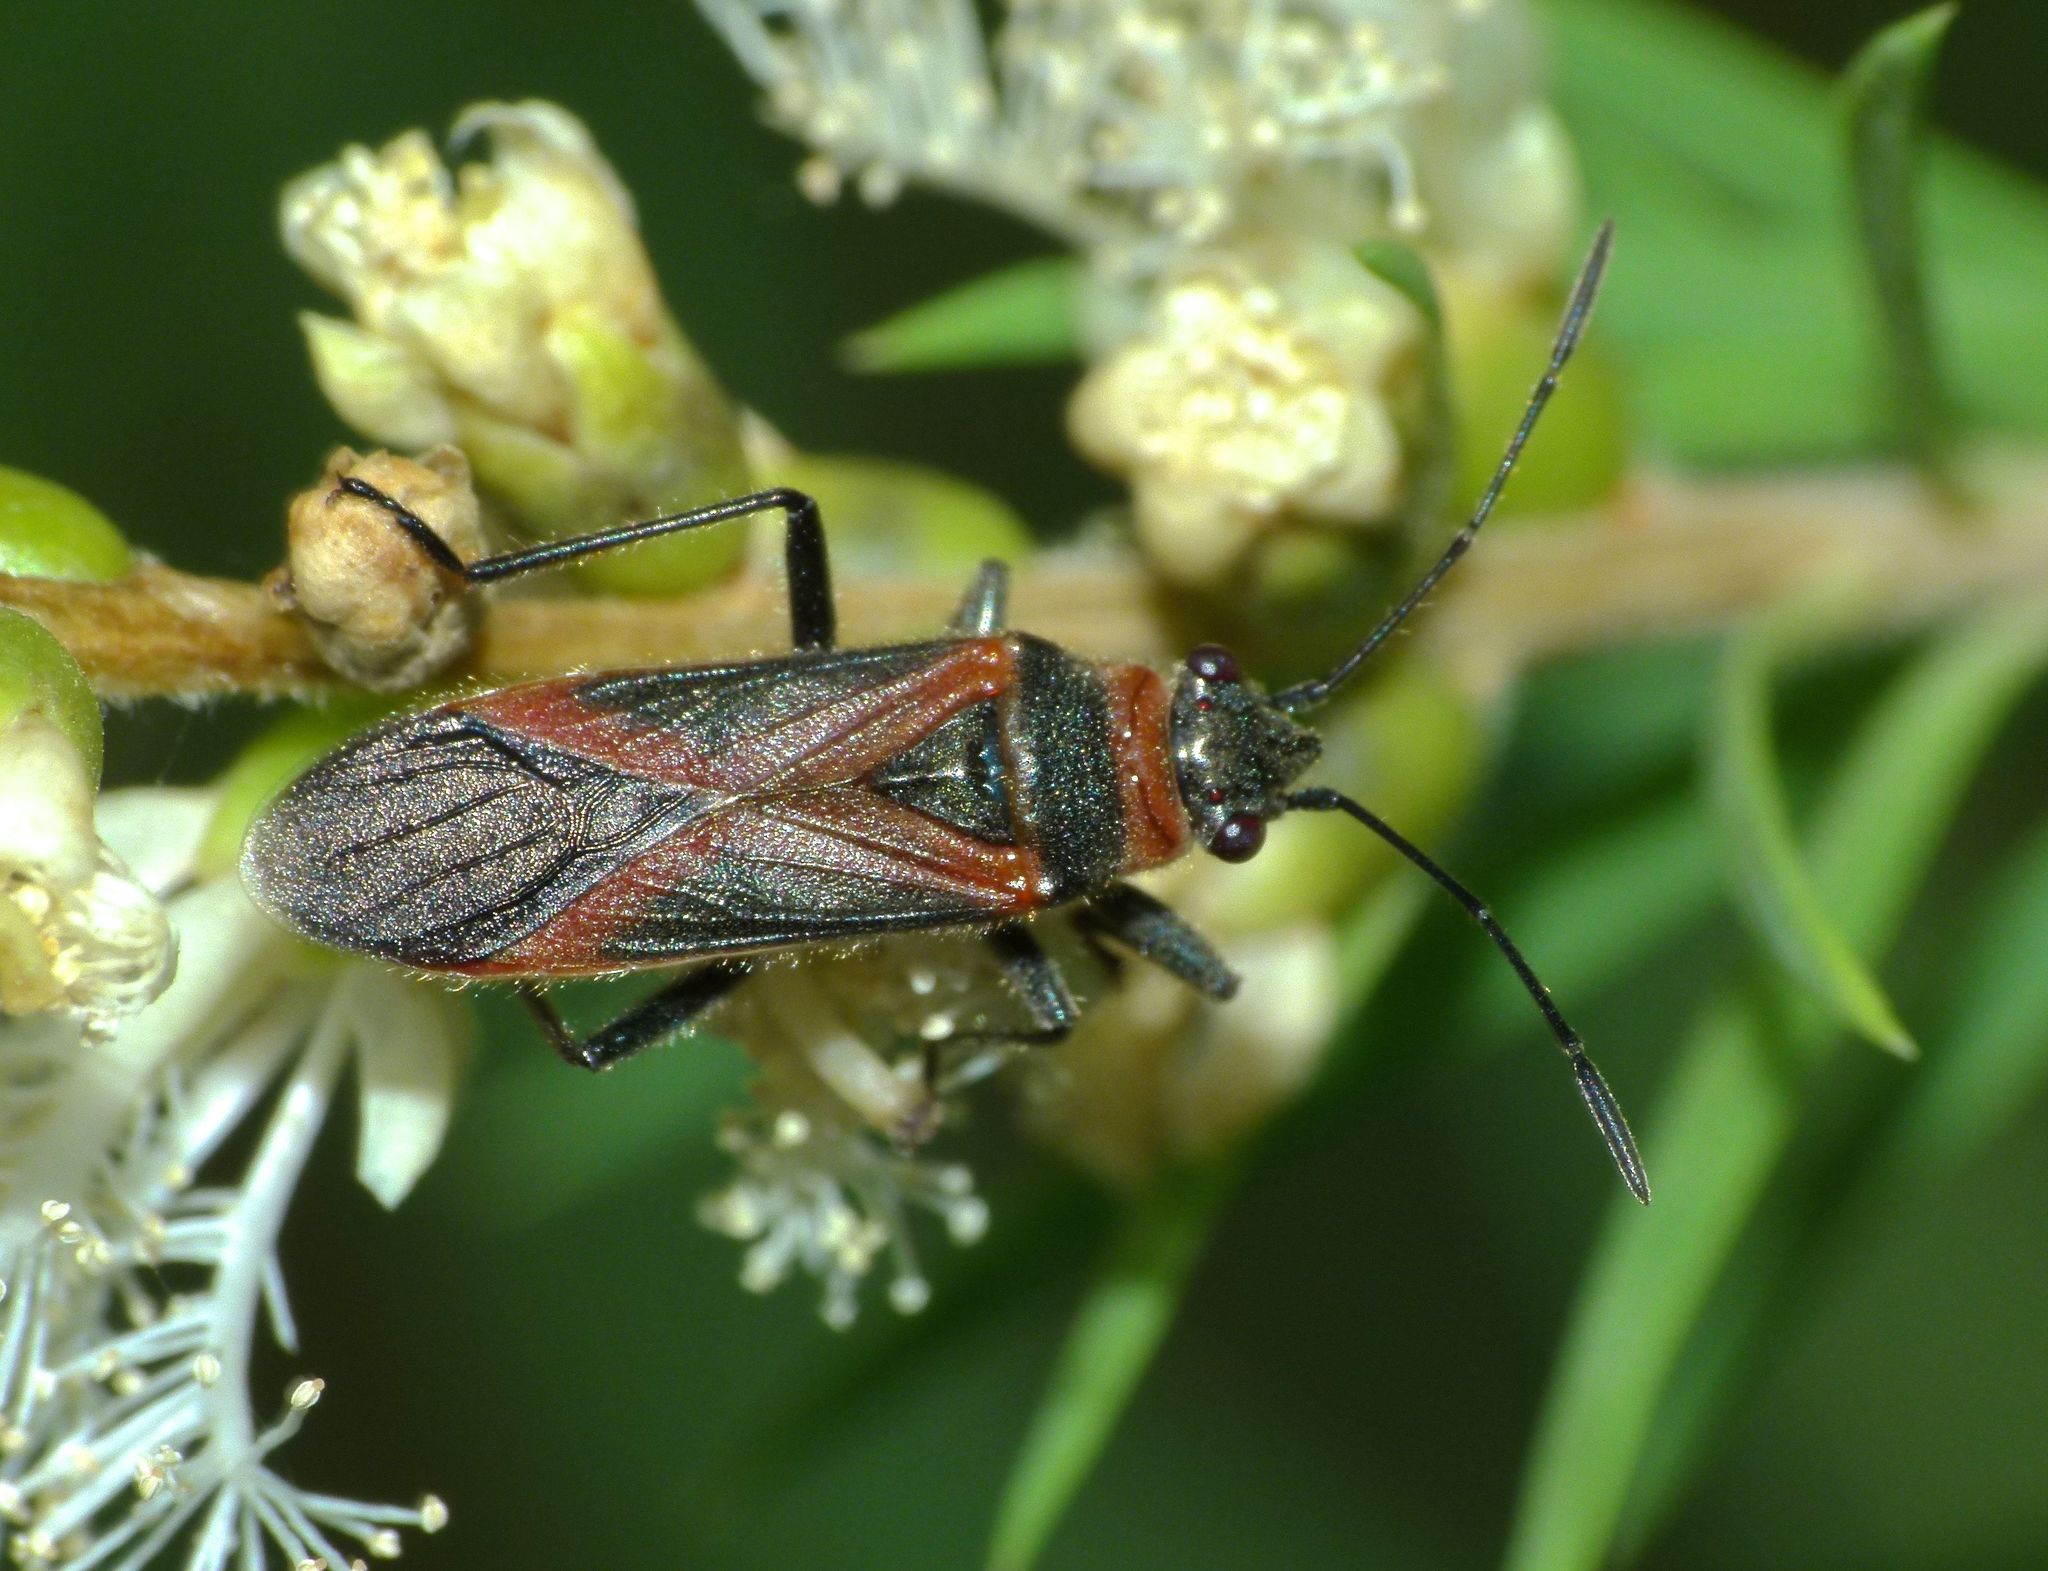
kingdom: Animalia
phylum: Arthropoda
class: Insecta
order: Hemiptera
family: Lygaeidae
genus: Arocatus
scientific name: Arocatus rusticus
